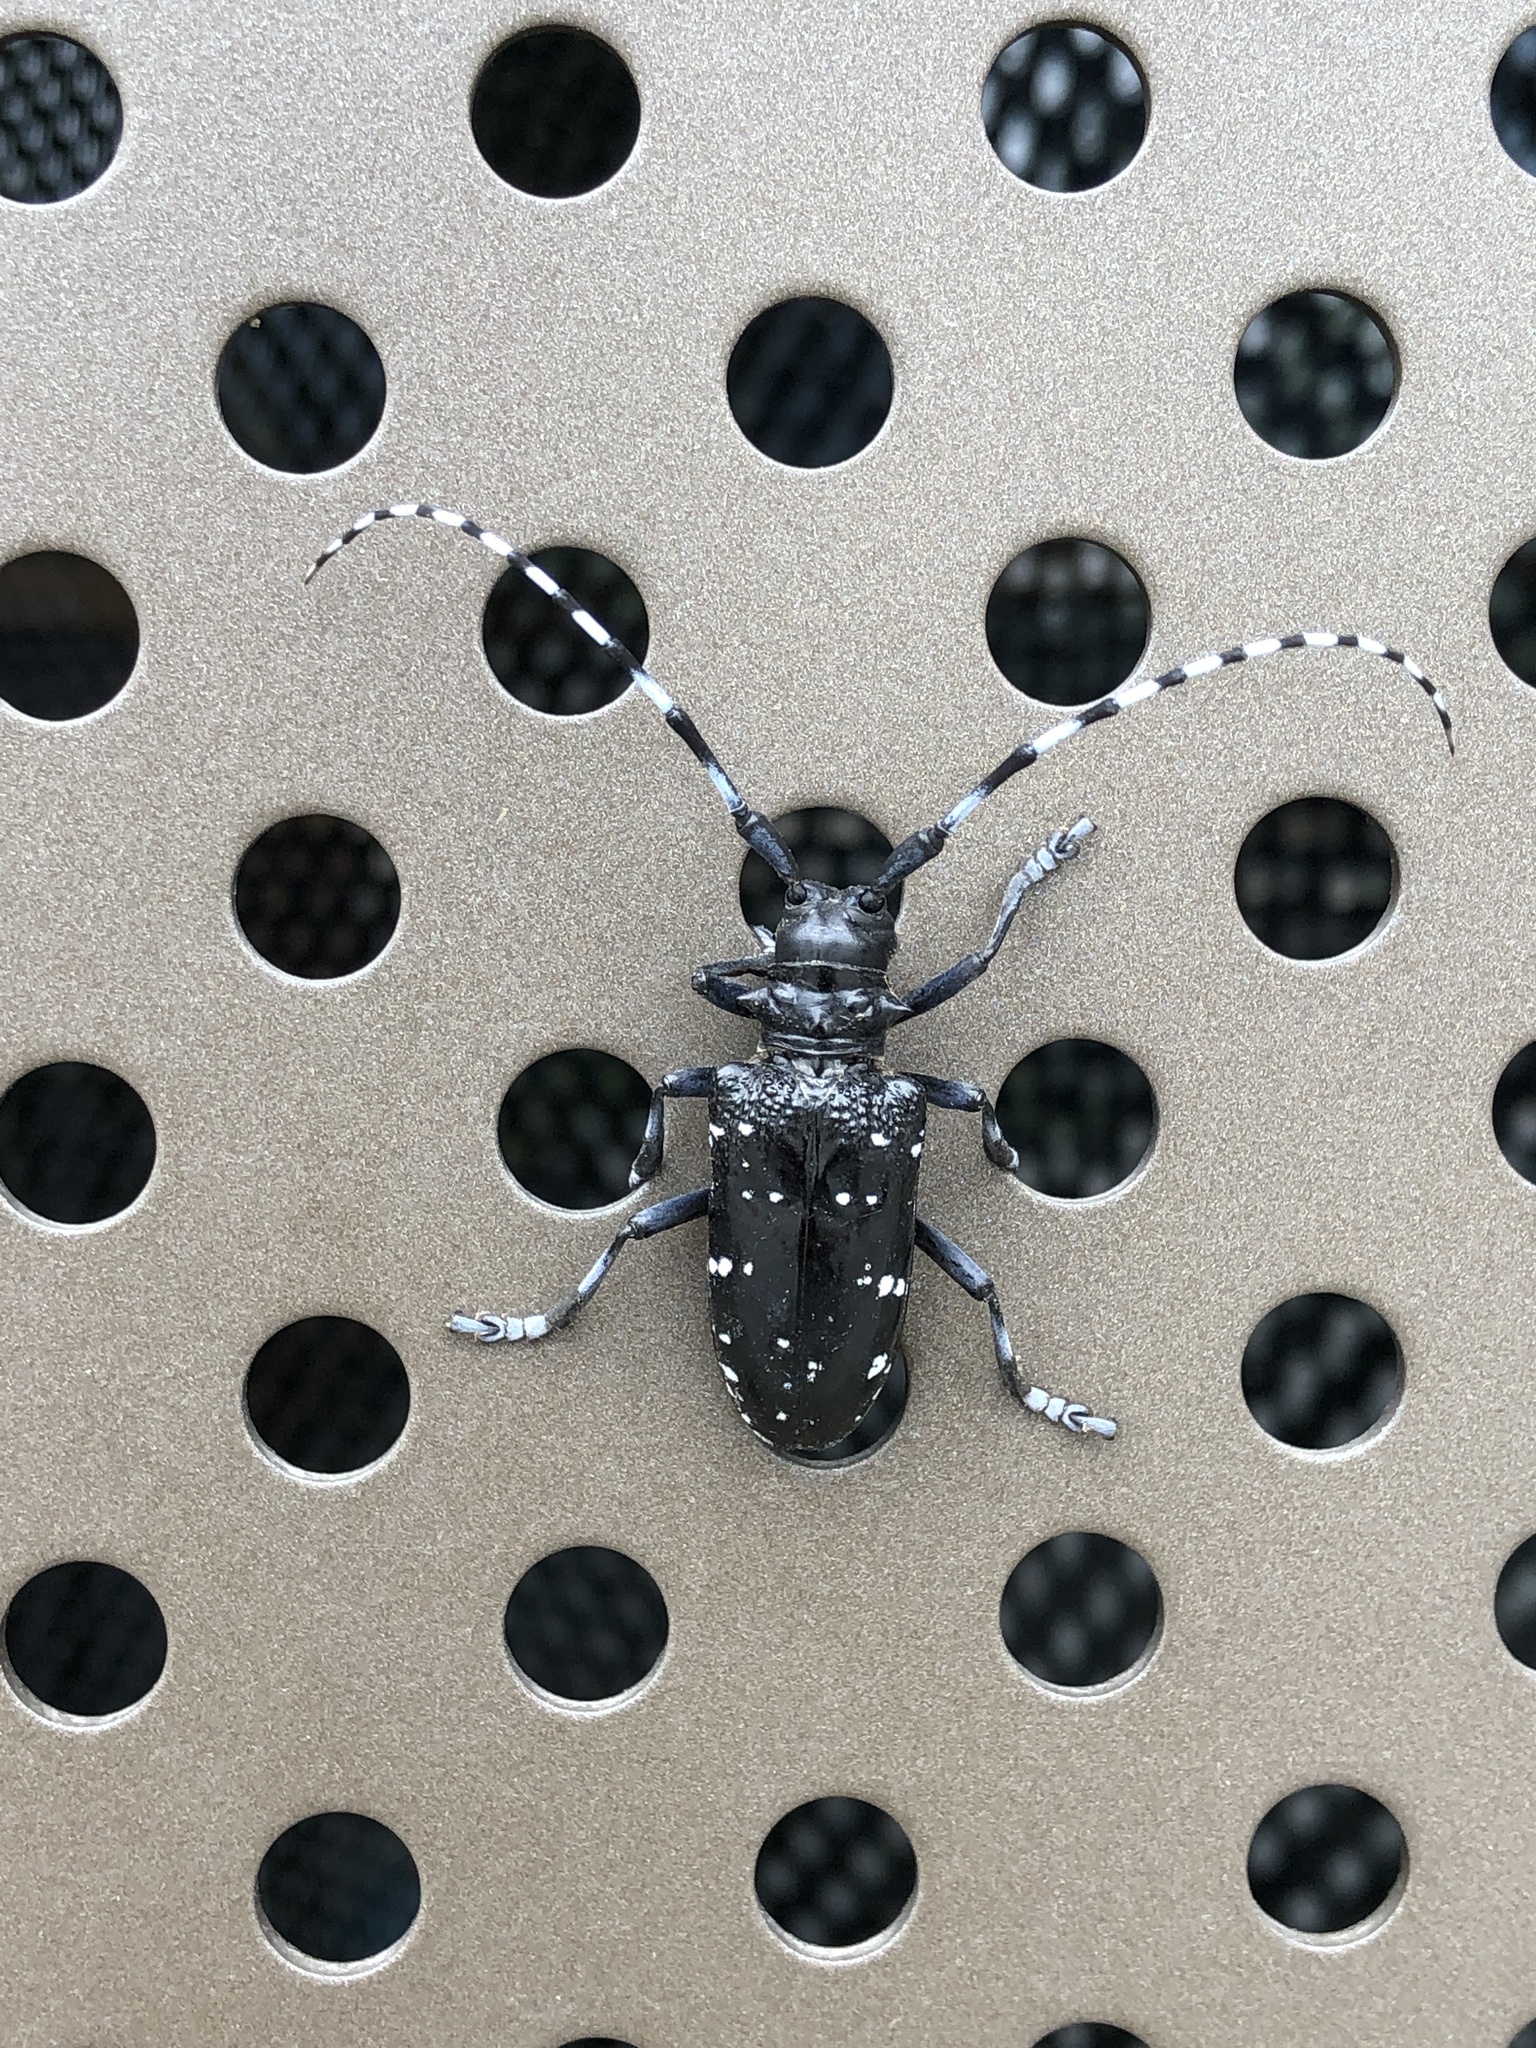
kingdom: Animalia
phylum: Arthropoda
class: Insecta
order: Coleoptera
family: Cerambycidae
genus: Anoplophora
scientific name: Anoplophora chinensis
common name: Citrus longhorned beetle
